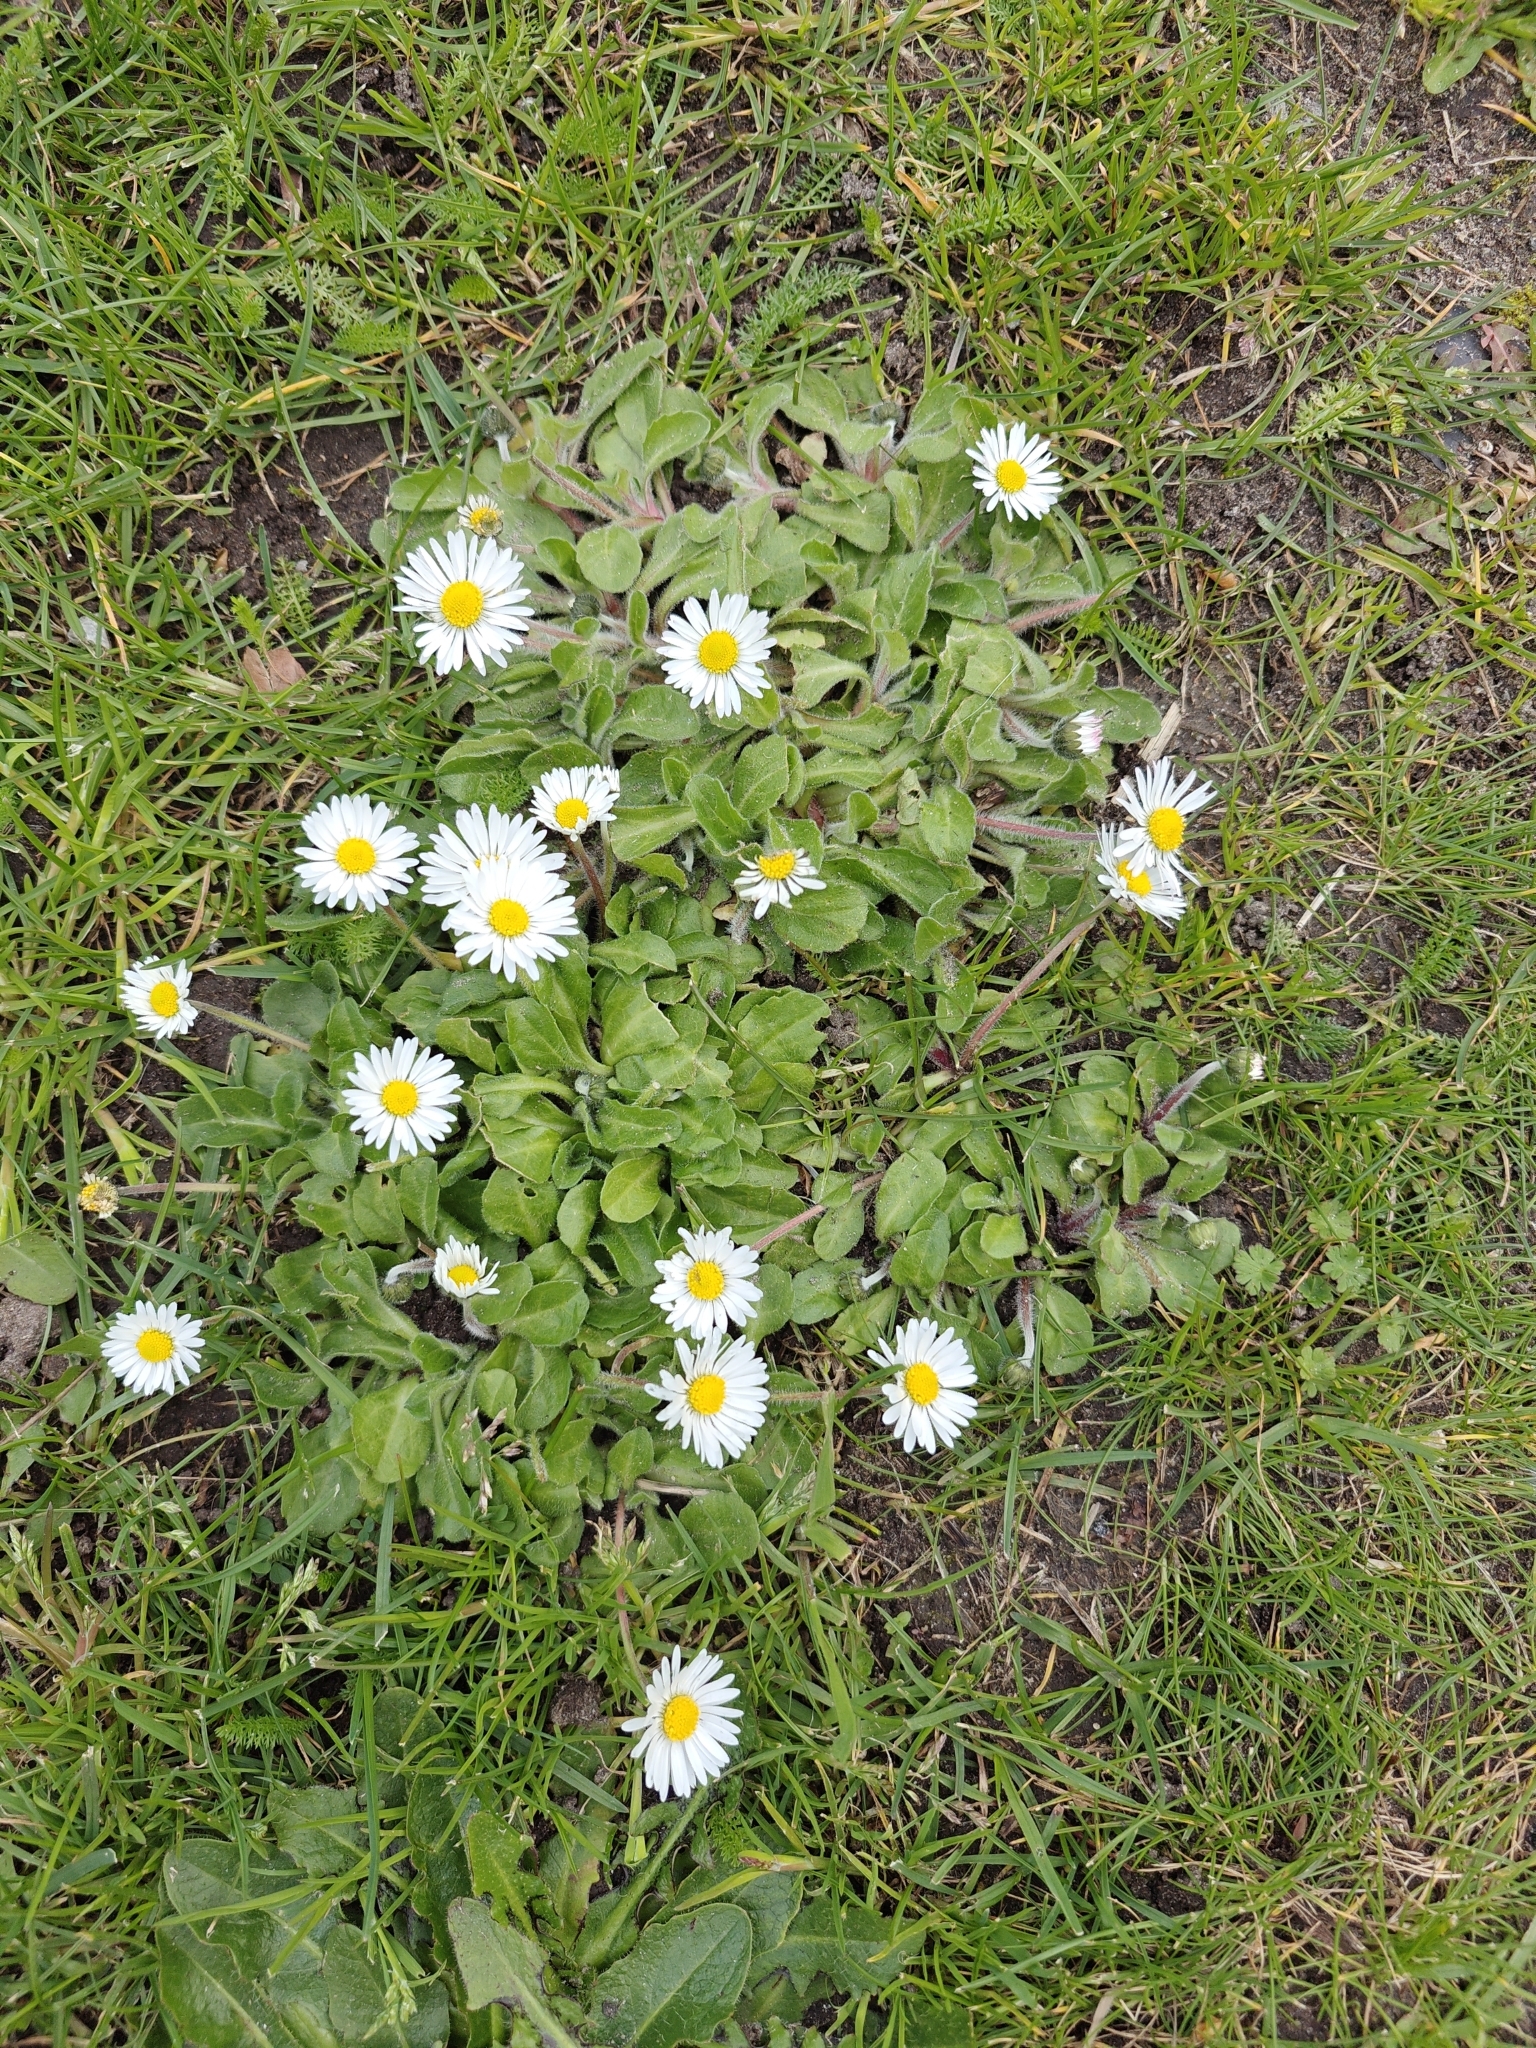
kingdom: Plantae
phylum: Tracheophyta
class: Magnoliopsida
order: Asterales
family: Asteraceae
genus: Bellis
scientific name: Bellis perennis
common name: Lawndaisy
